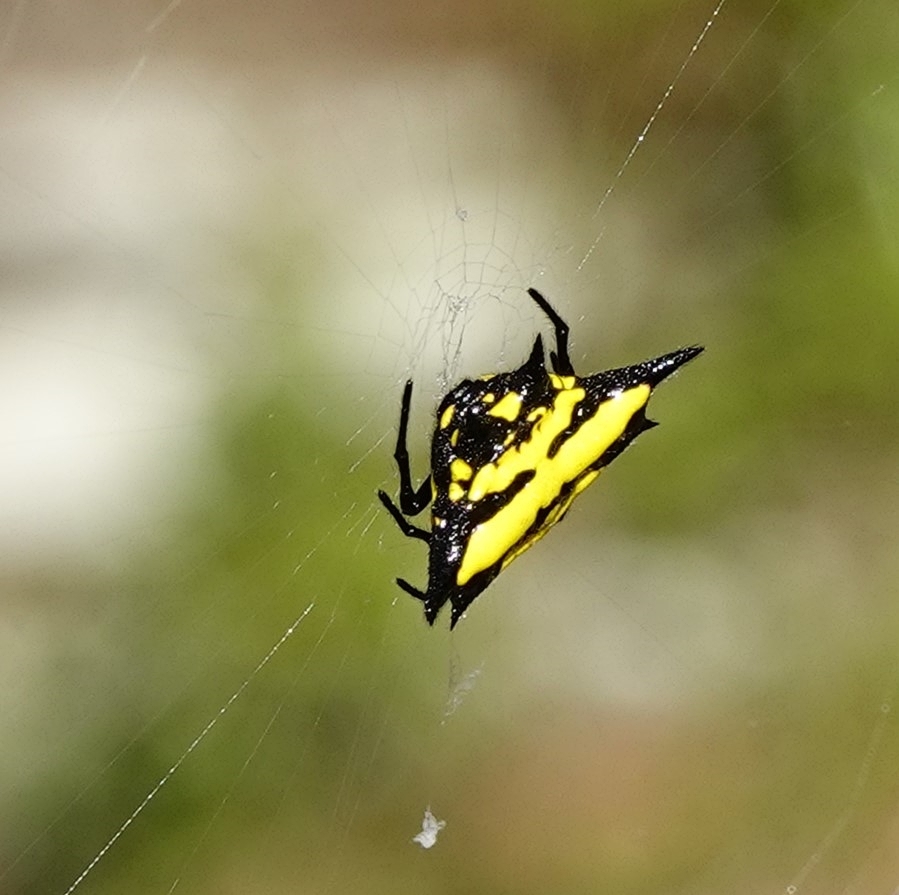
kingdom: Animalia
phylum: Arthropoda
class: Arachnida
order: Araneae
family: Araneidae
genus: Gasteracantha
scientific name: Gasteracantha rhomboidea
